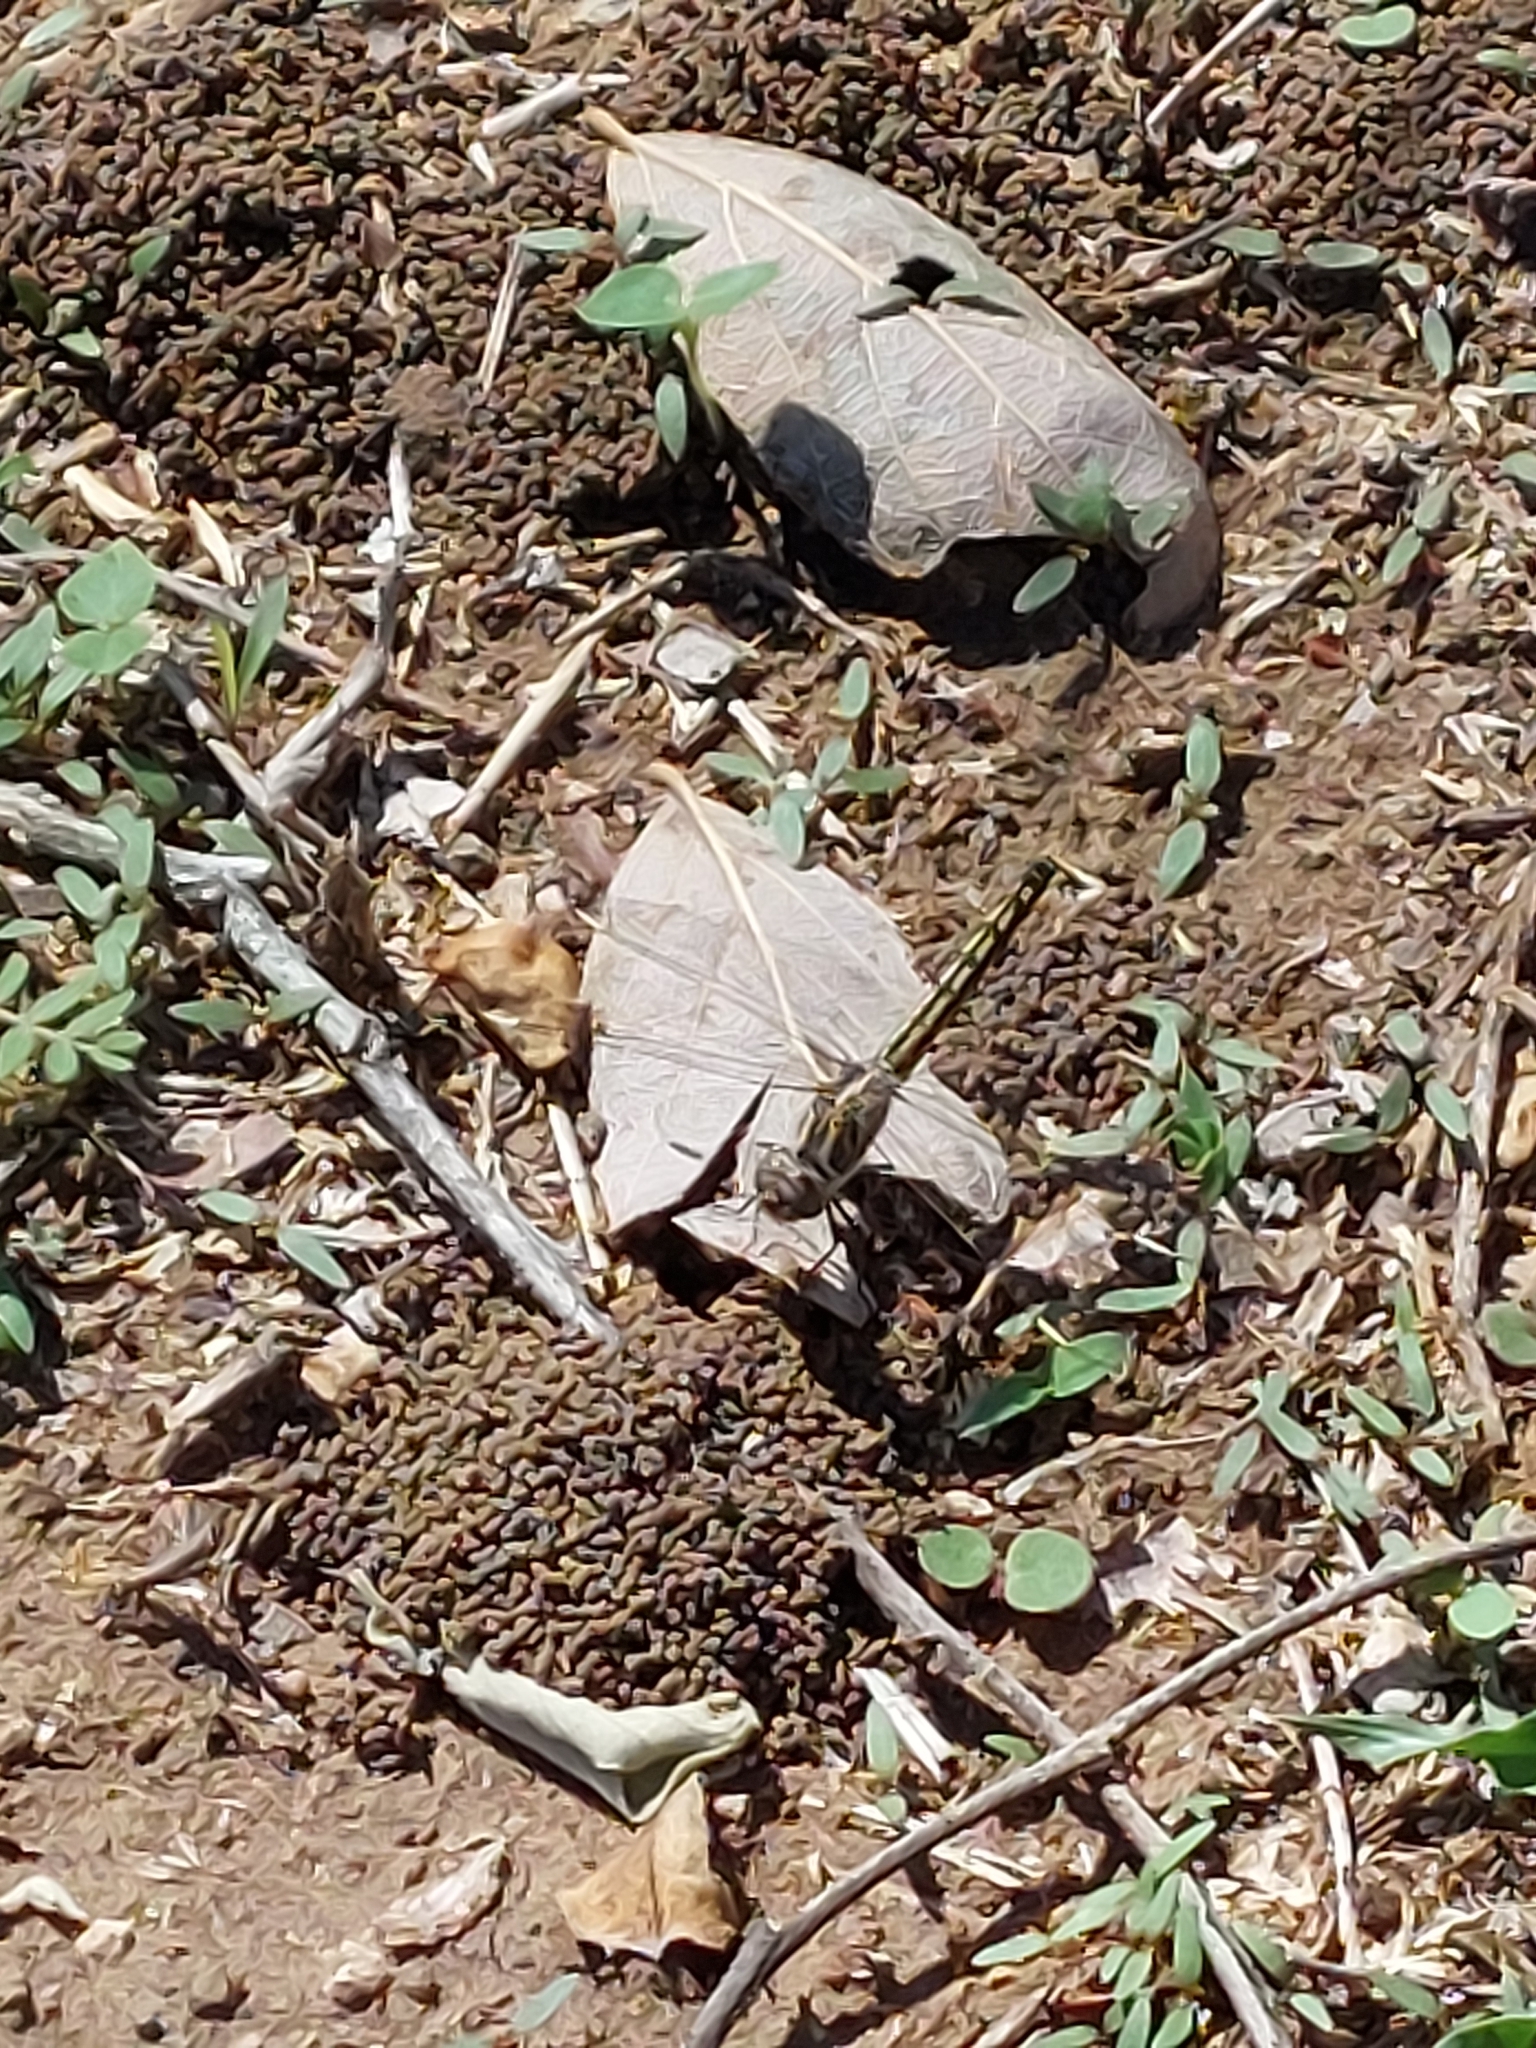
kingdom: Animalia
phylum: Arthropoda
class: Insecta
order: Odonata
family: Libellulidae
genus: Brachythemis
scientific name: Brachythemis leucosticta
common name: Banded groundling
